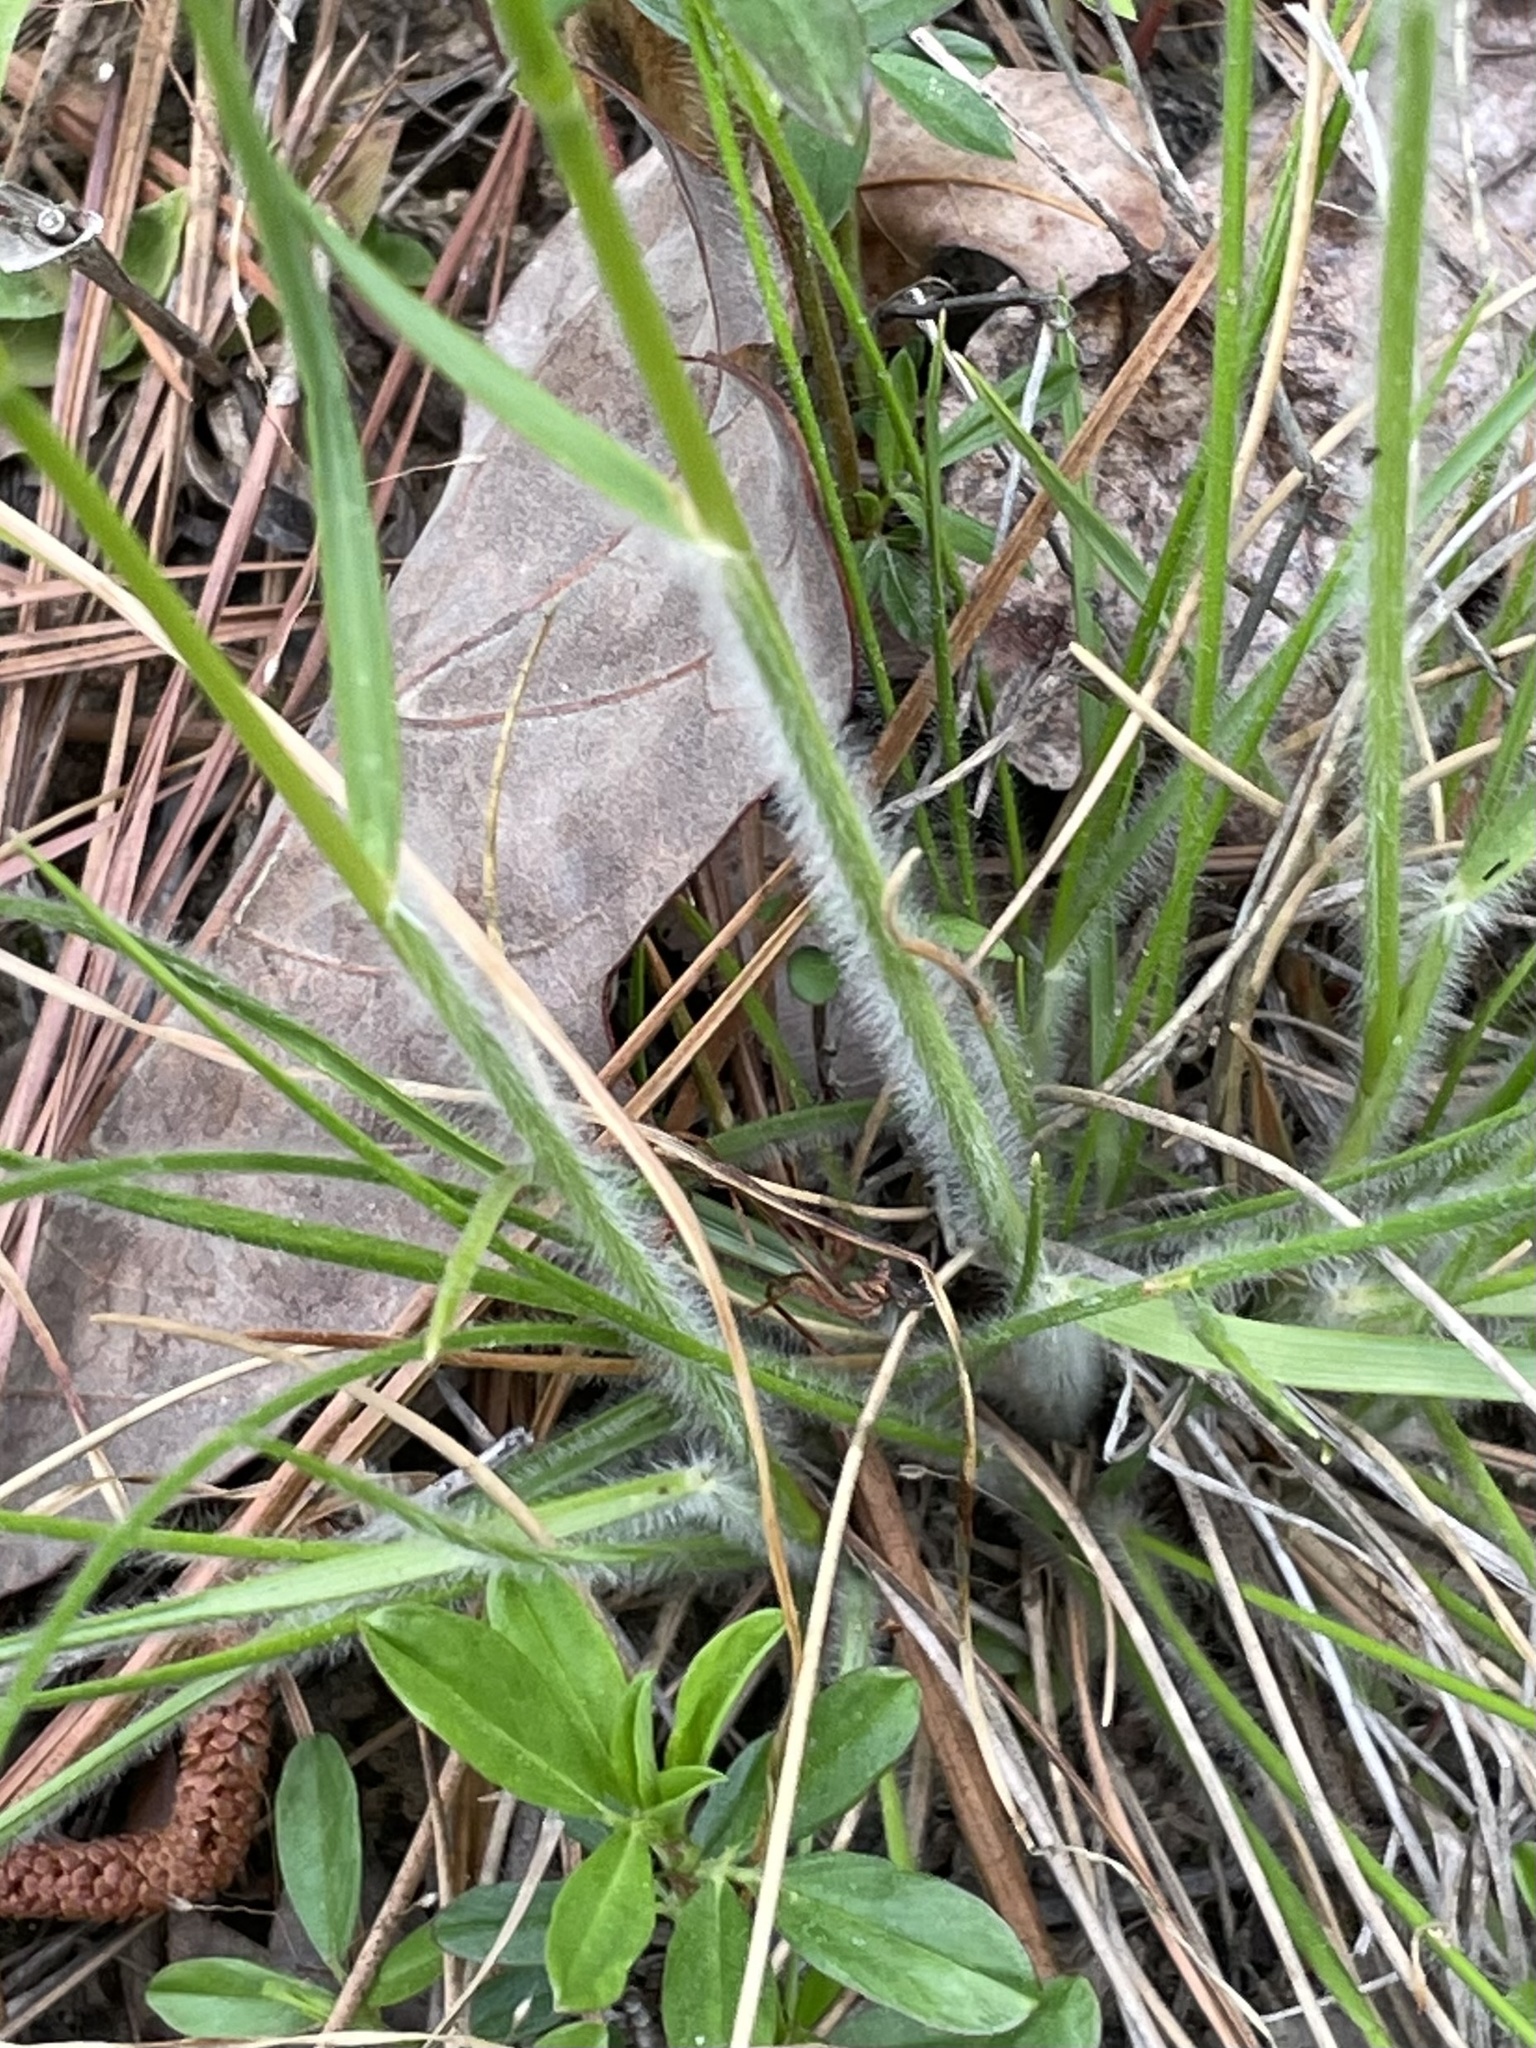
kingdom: Plantae
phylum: Tracheophyta
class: Liliopsida
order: Poales
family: Poaceae
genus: Danthonia
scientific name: Danthonia sericea
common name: Downy danthonia
